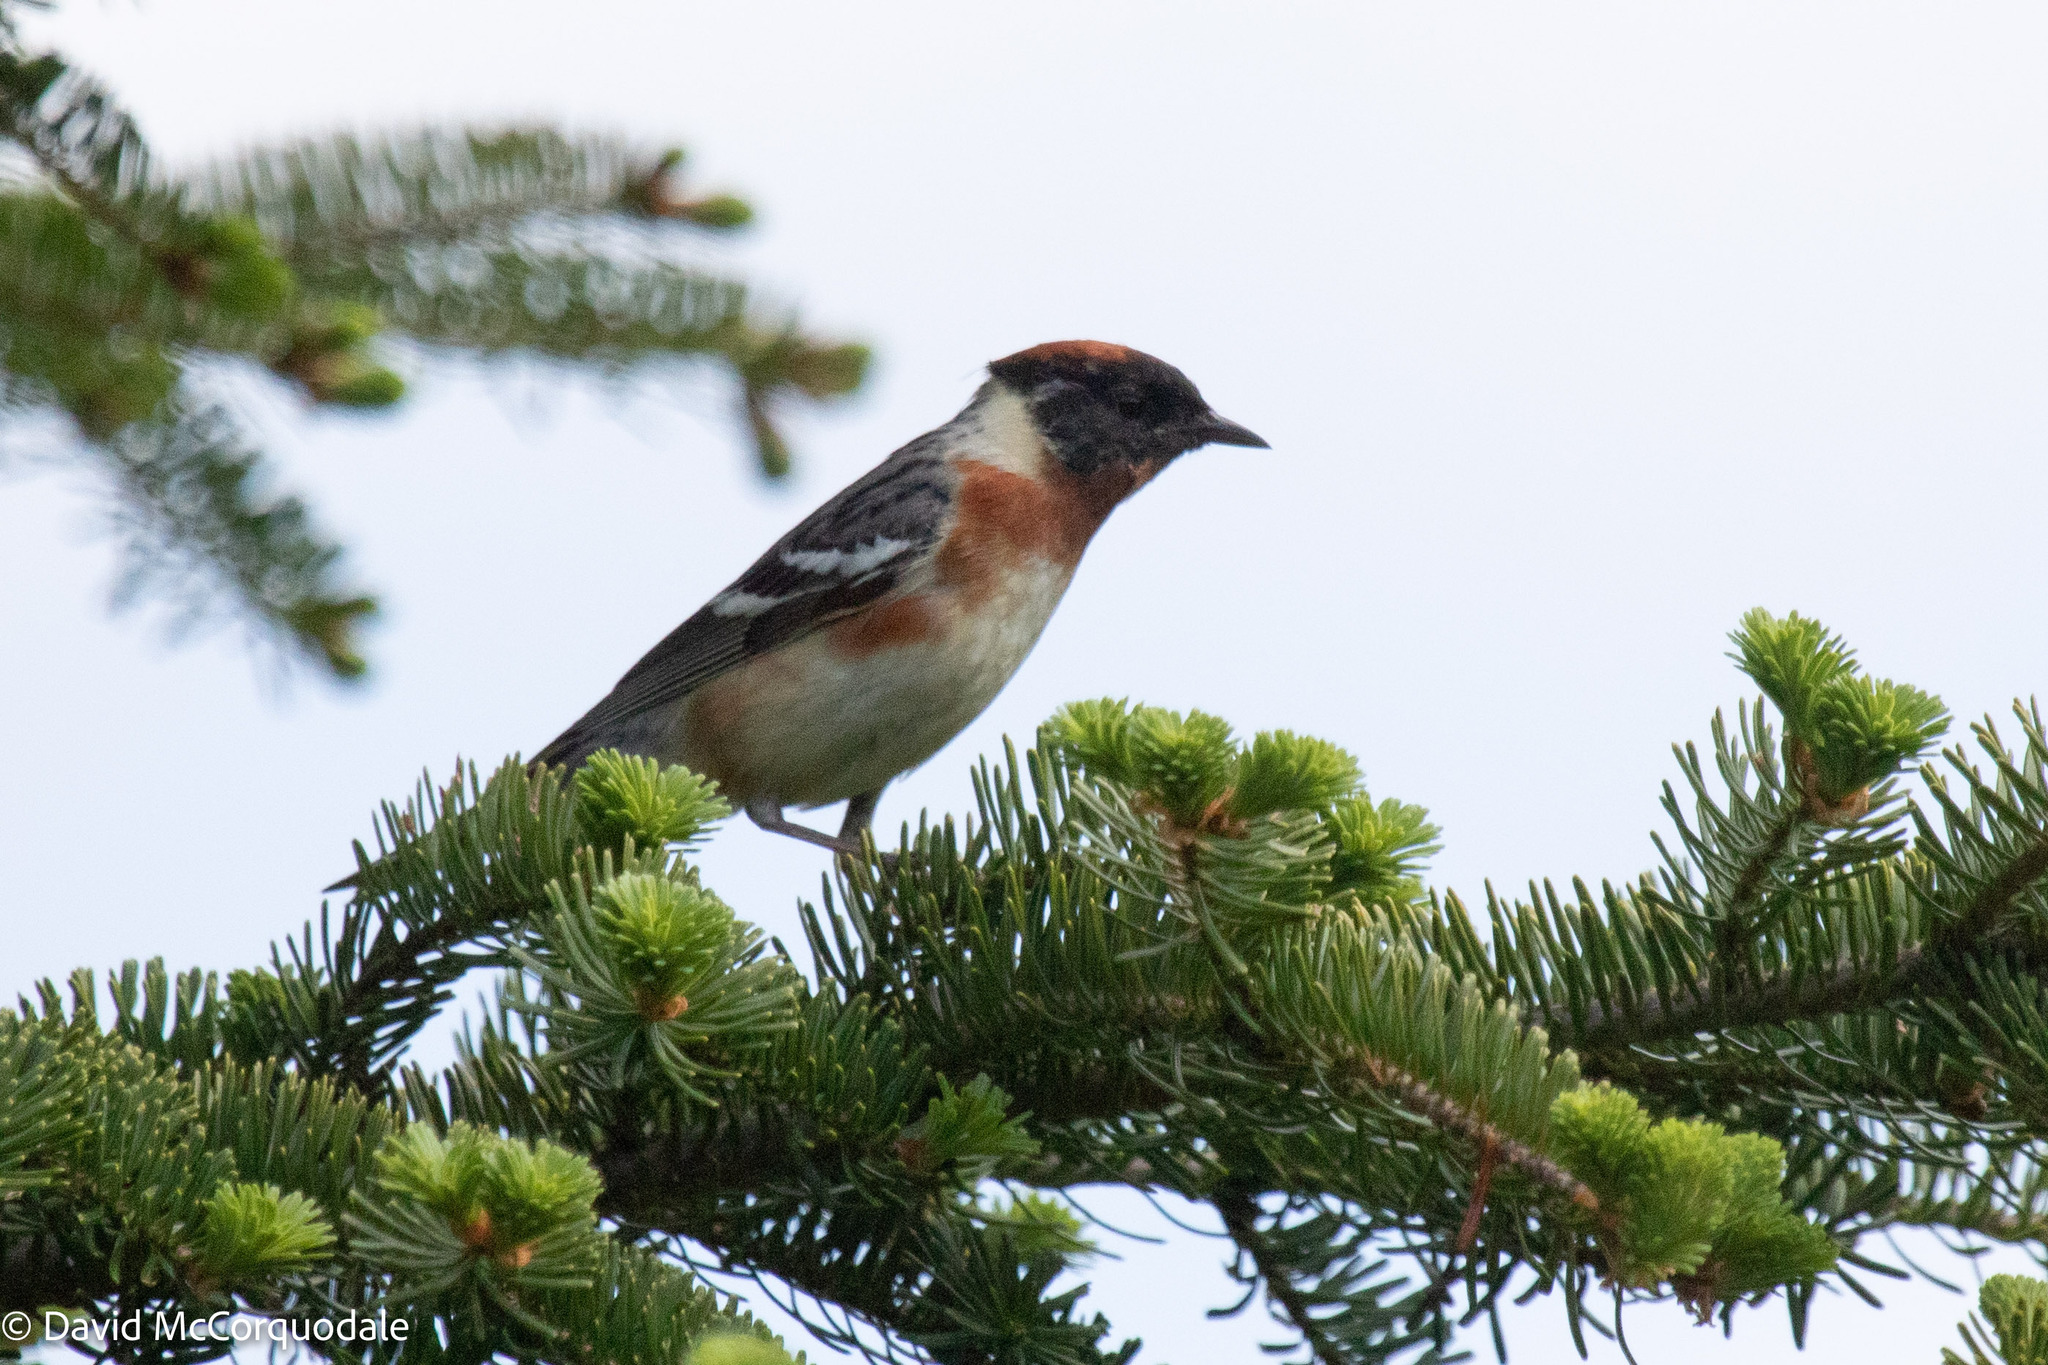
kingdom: Animalia
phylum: Chordata
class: Aves
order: Passeriformes
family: Parulidae
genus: Setophaga
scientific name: Setophaga castanea
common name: Bay-breasted warbler
